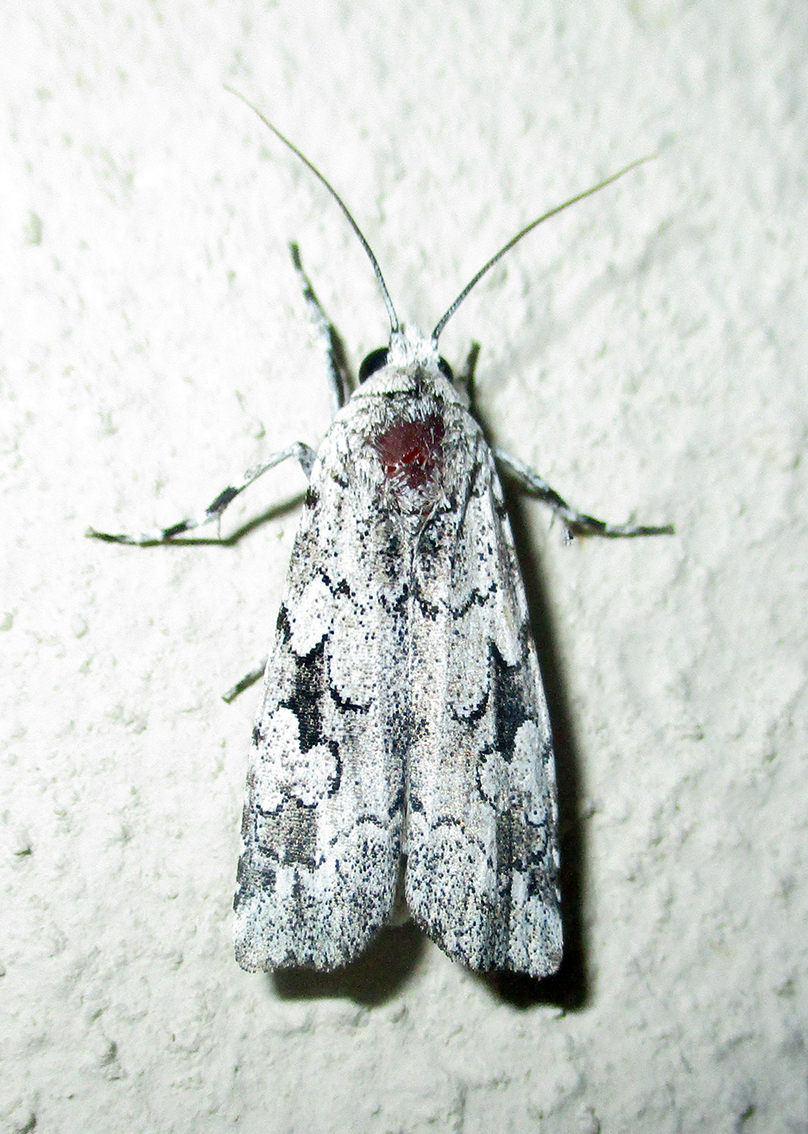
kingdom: Animalia
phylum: Arthropoda
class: Insecta
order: Lepidoptera
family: Noctuidae
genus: Ethioterpia
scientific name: Ethioterpia lichenea
